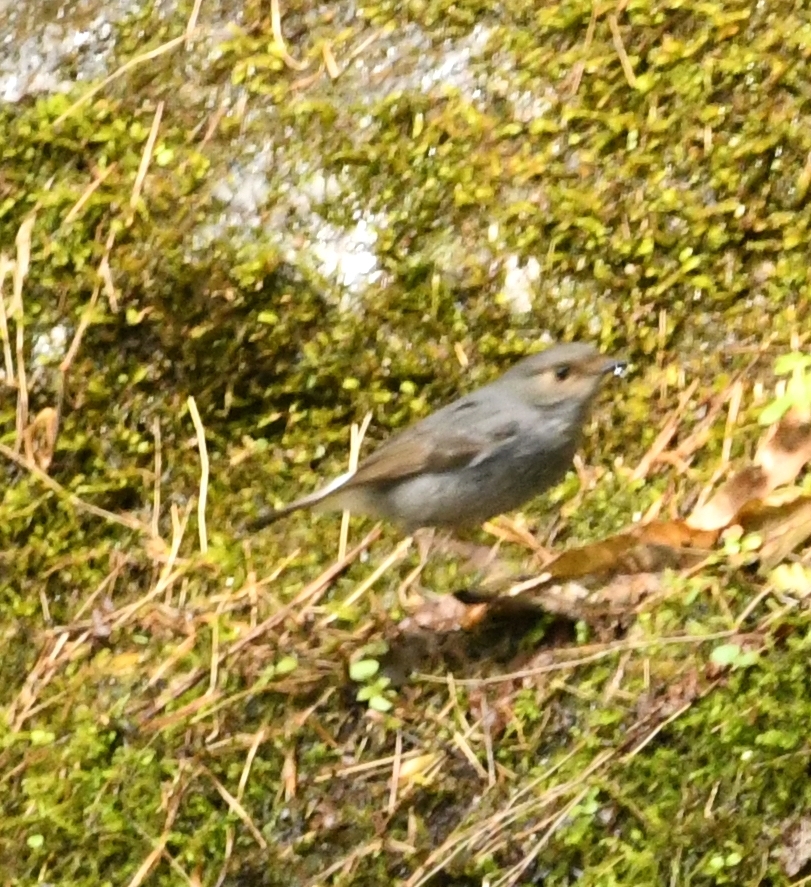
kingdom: Animalia
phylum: Chordata
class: Aves
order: Passeriformes
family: Muscicapidae
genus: Phoenicurus
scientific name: Phoenicurus fuliginosus
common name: Plumbeous water redstart
